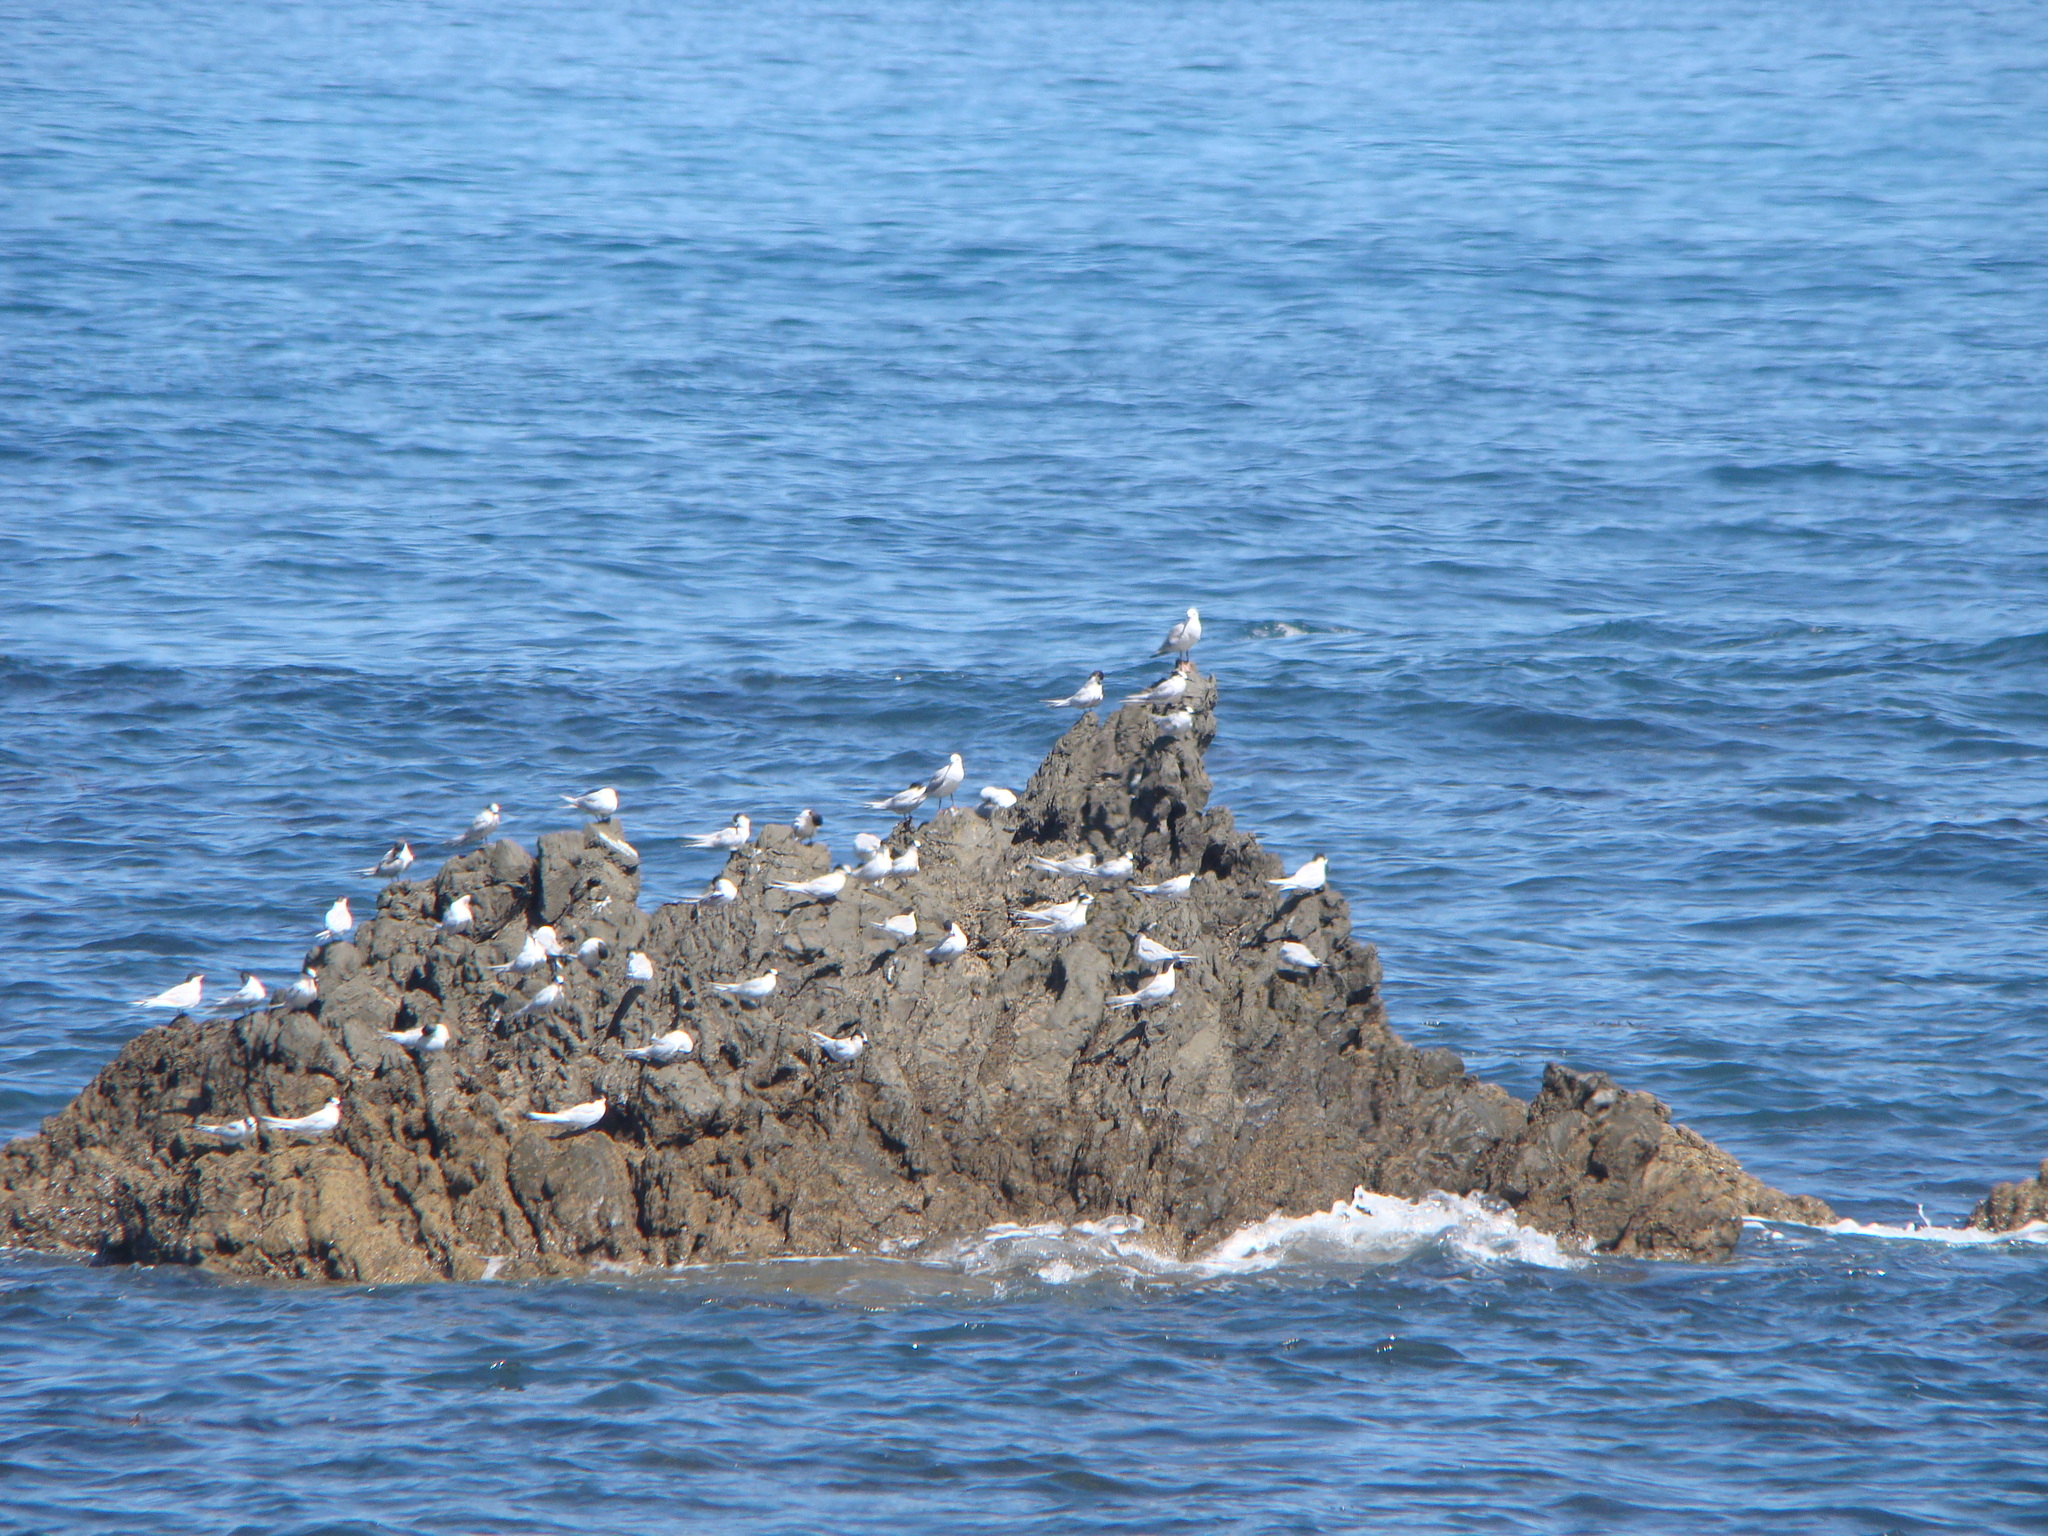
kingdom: Animalia
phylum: Chordata
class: Aves
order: Charadriiformes
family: Laridae
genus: Sterna
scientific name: Sterna striata
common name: White-fronted tern
